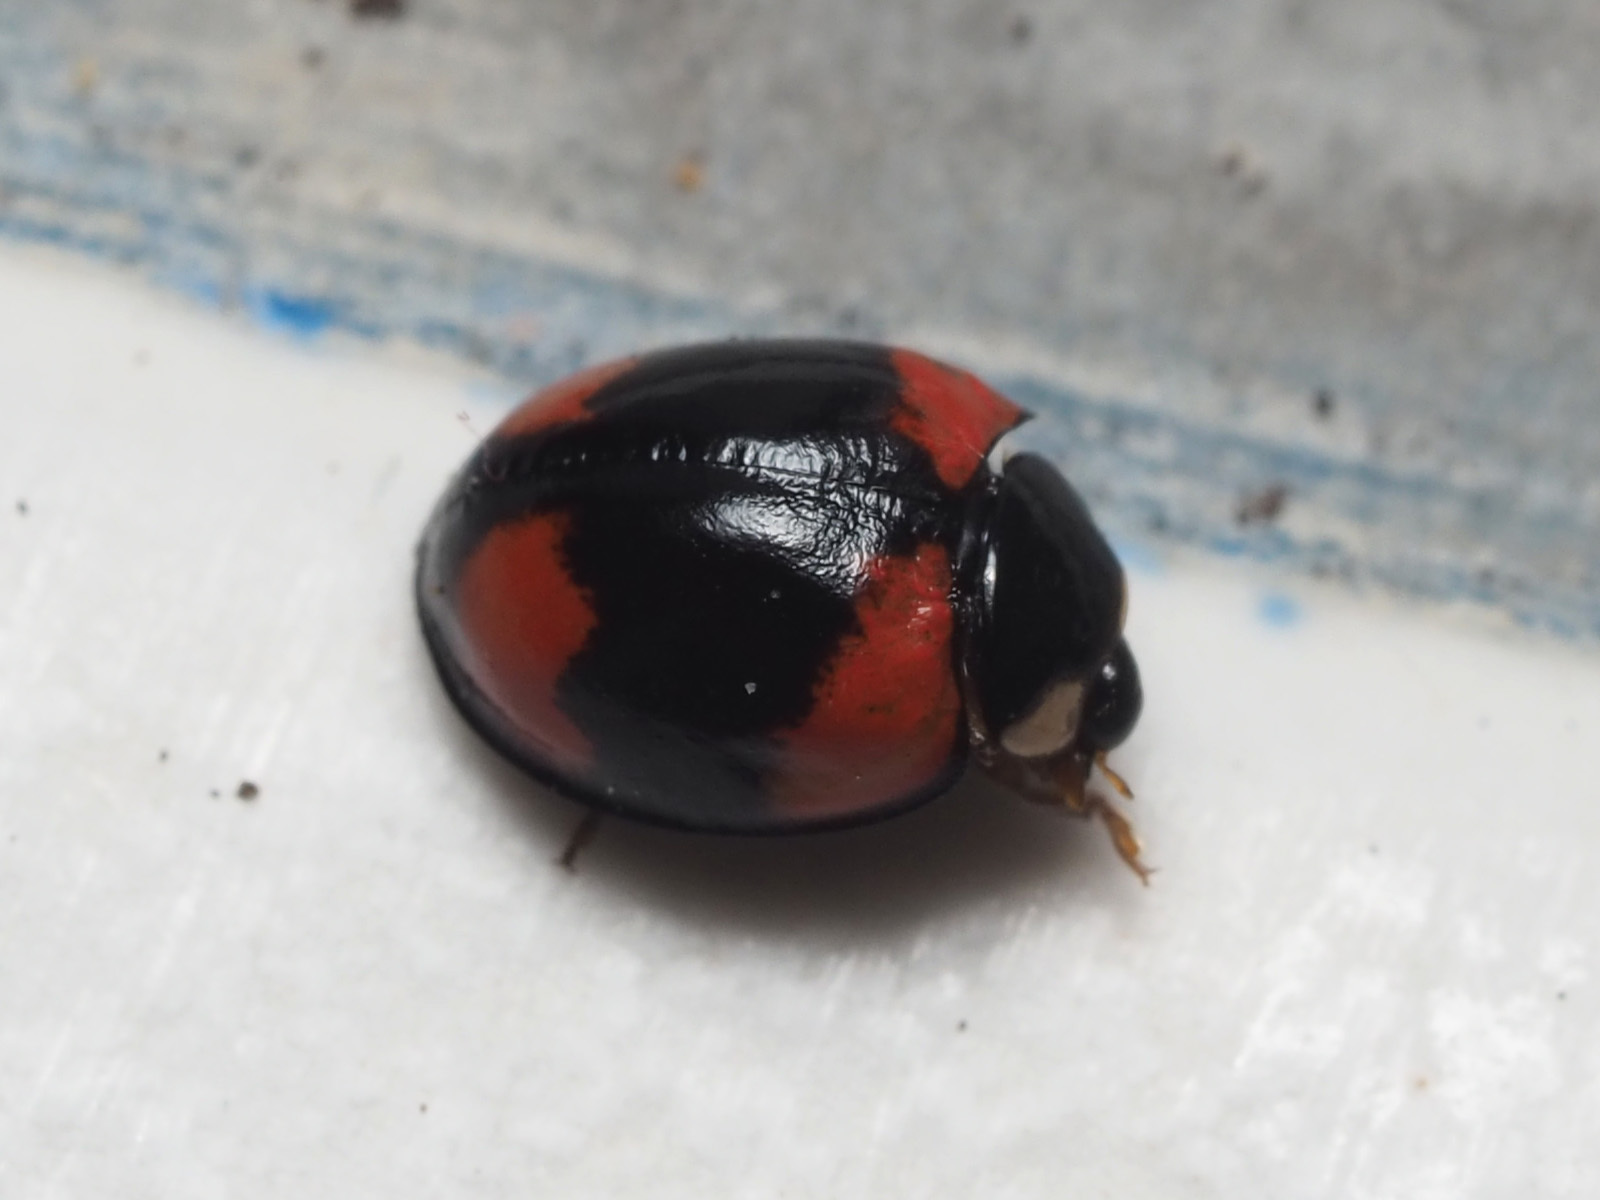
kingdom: Animalia
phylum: Arthropoda
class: Insecta
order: Coleoptera
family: Coccinellidae
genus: Cheilomenes
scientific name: Cheilomenes sexmaculata
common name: Ladybird beetle
